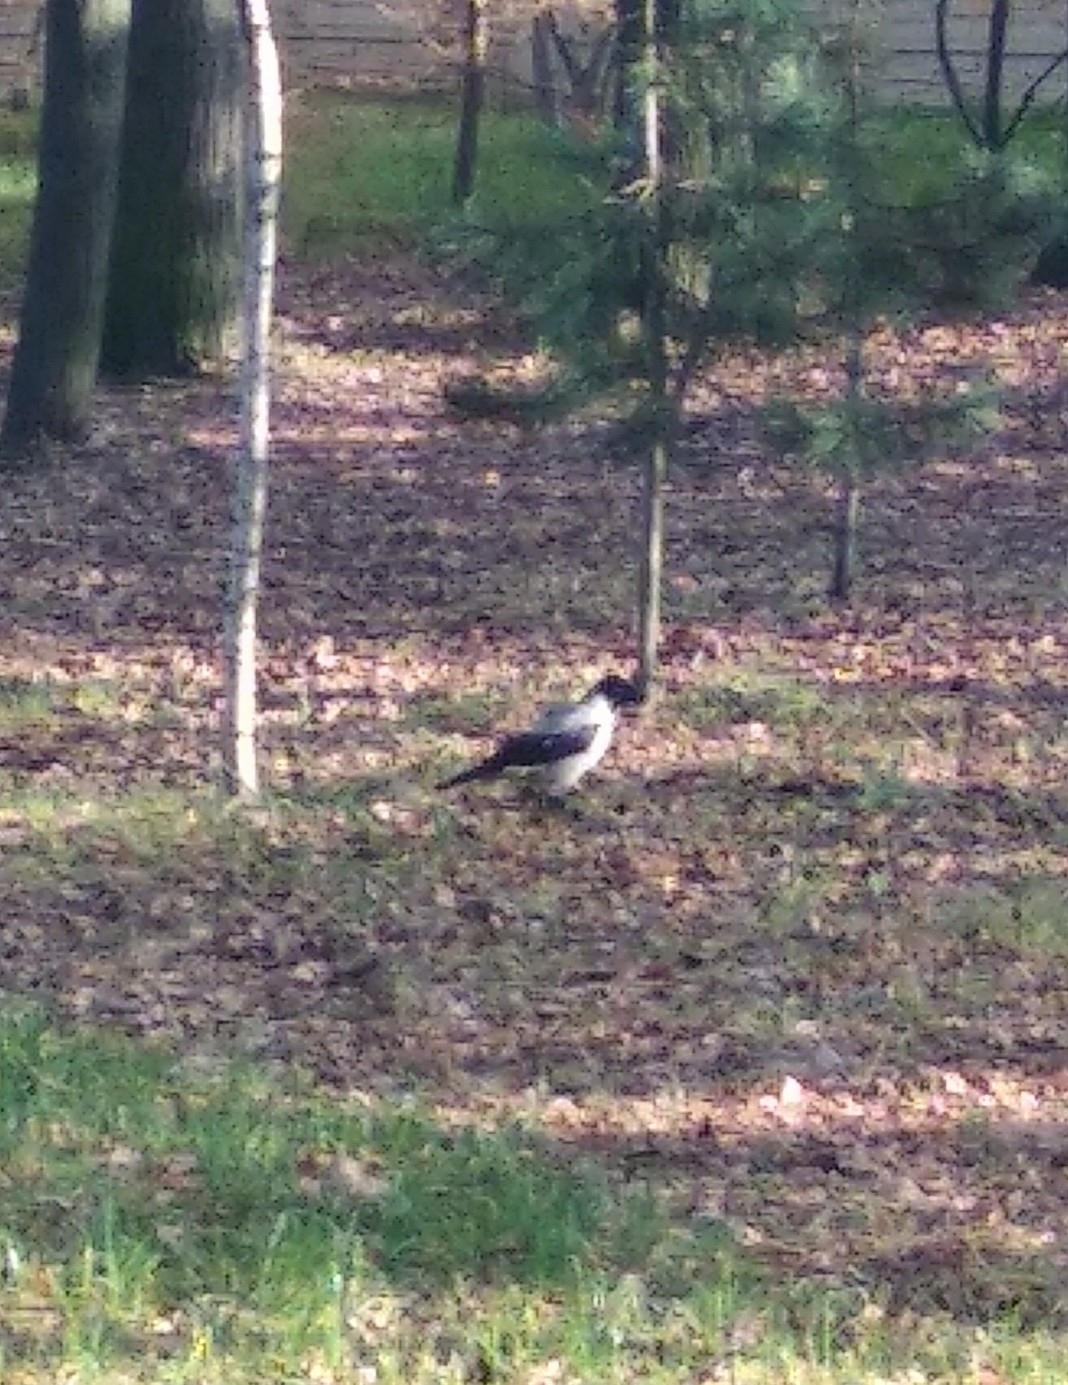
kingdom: Animalia
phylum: Chordata
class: Aves
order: Passeriformes
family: Corvidae
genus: Corvus
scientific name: Corvus cornix
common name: Hooded crow
